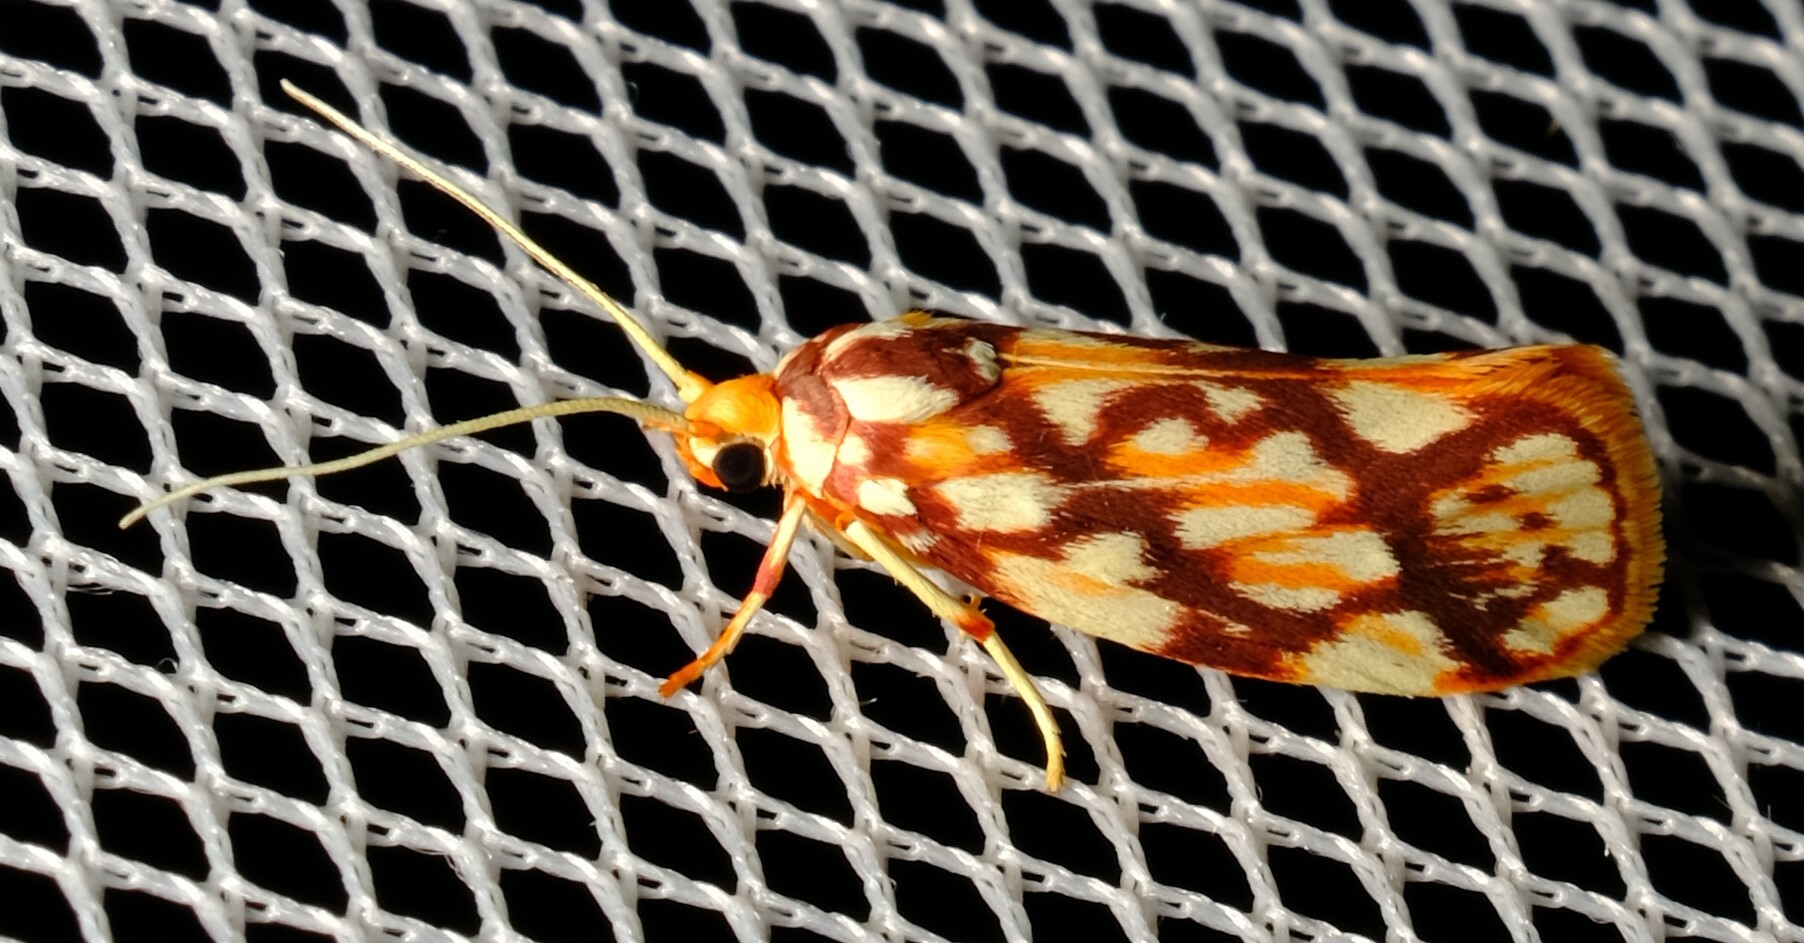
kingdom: Animalia
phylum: Arthropoda
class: Insecta
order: Lepidoptera
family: Lacturidae
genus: Lactura
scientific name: Lactura panopsia
